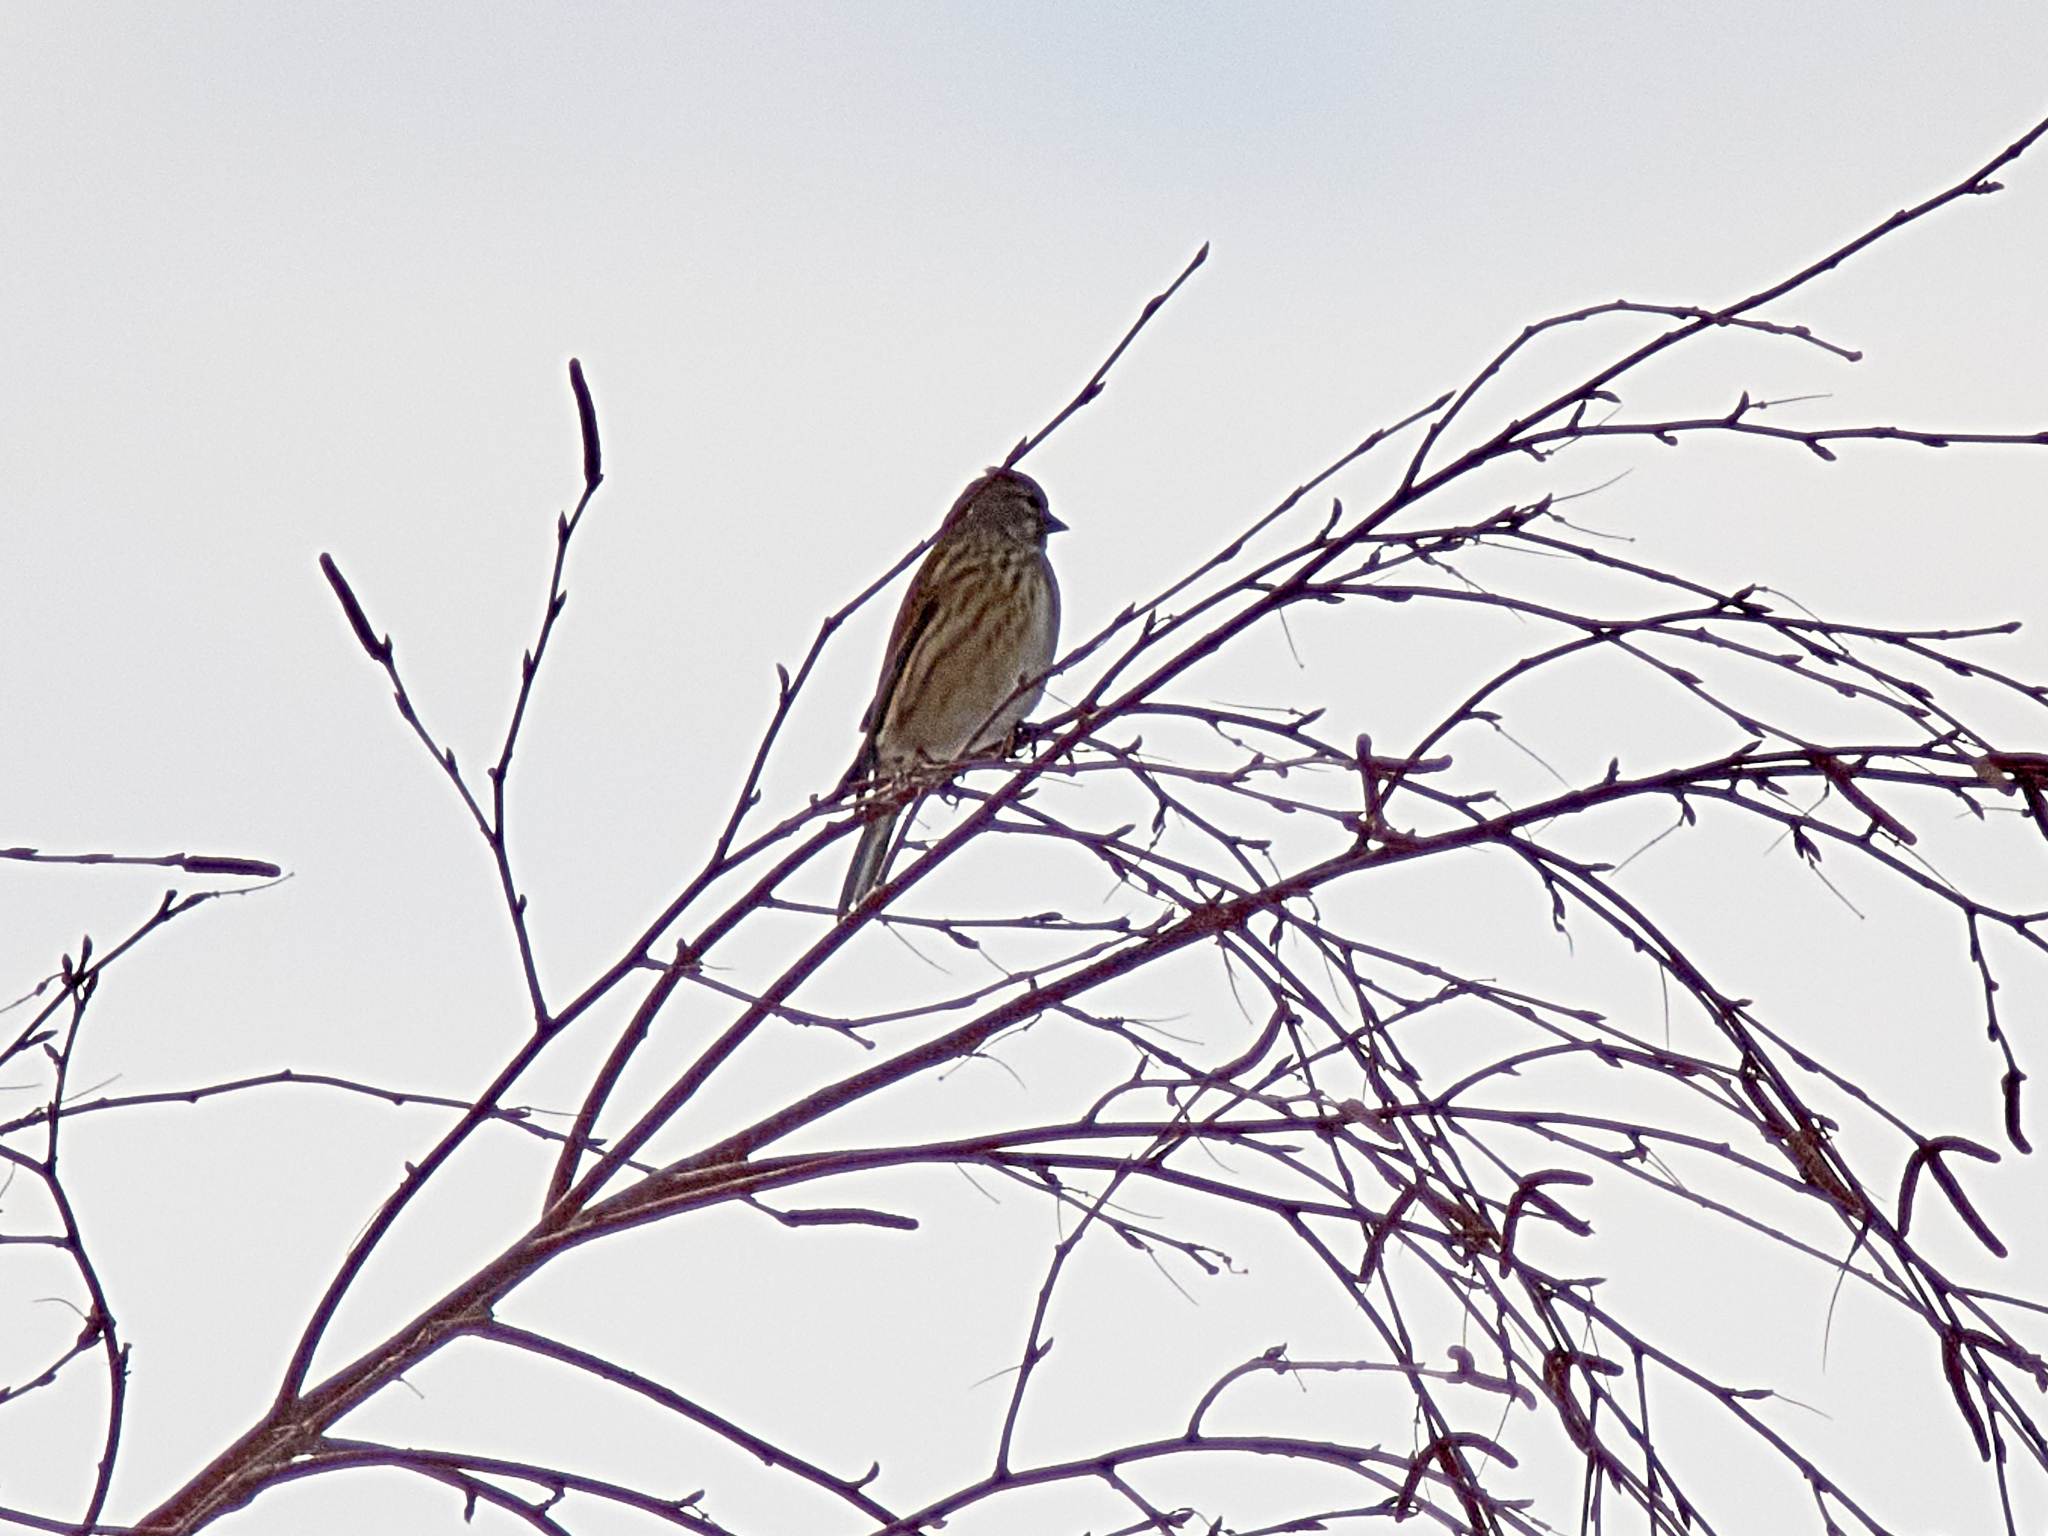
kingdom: Animalia
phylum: Chordata
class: Aves
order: Passeriformes
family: Fringillidae
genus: Linaria
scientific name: Linaria cannabina
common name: Common linnet
